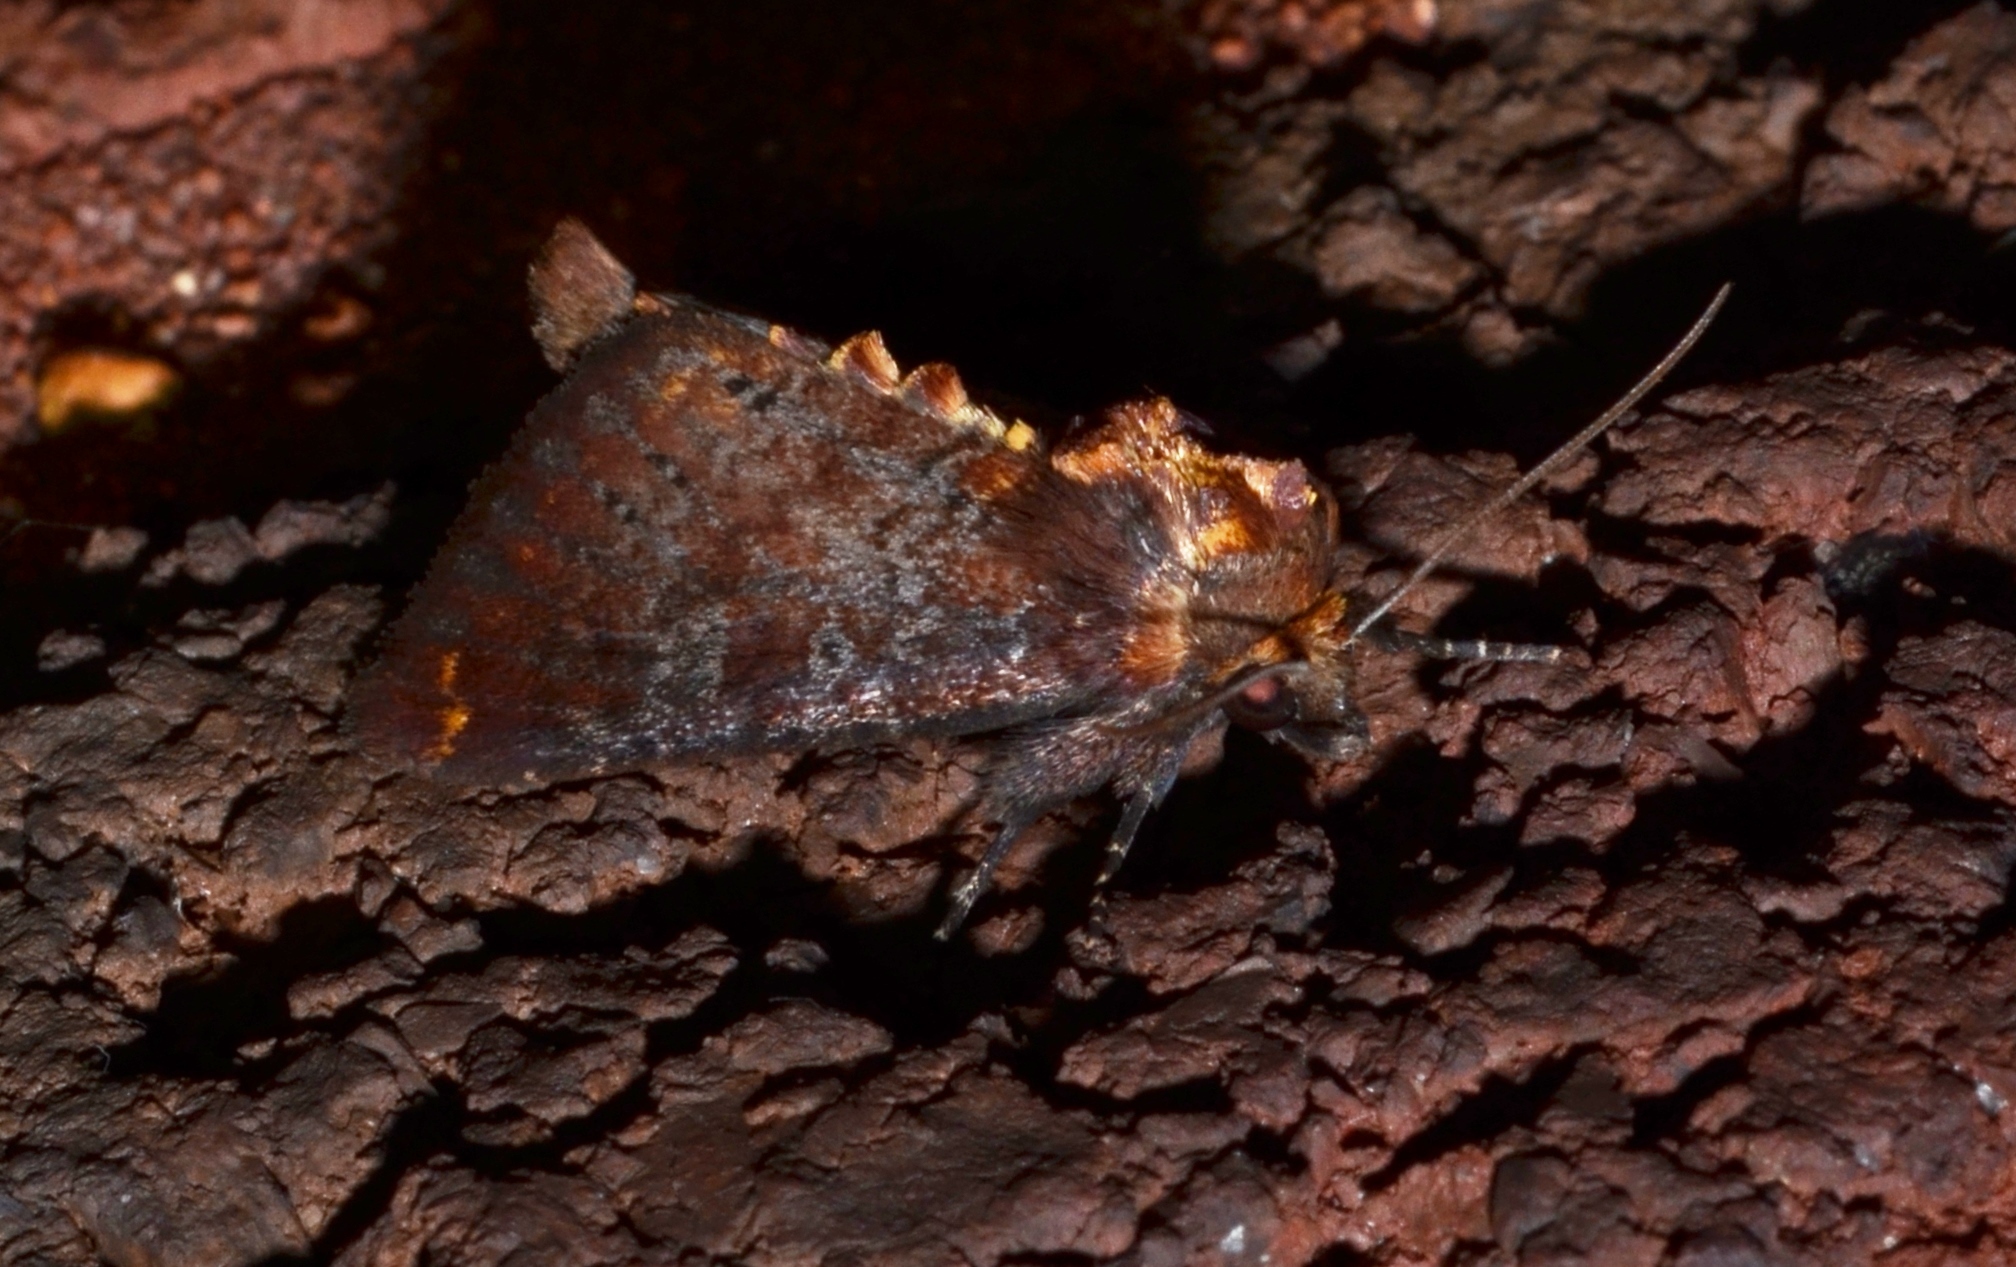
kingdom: Animalia
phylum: Arthropoda
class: Insecta
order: Lepidoptera
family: Noctuidae
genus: Achatodes
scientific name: Achatodes zeae
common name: Elder shoot borer
